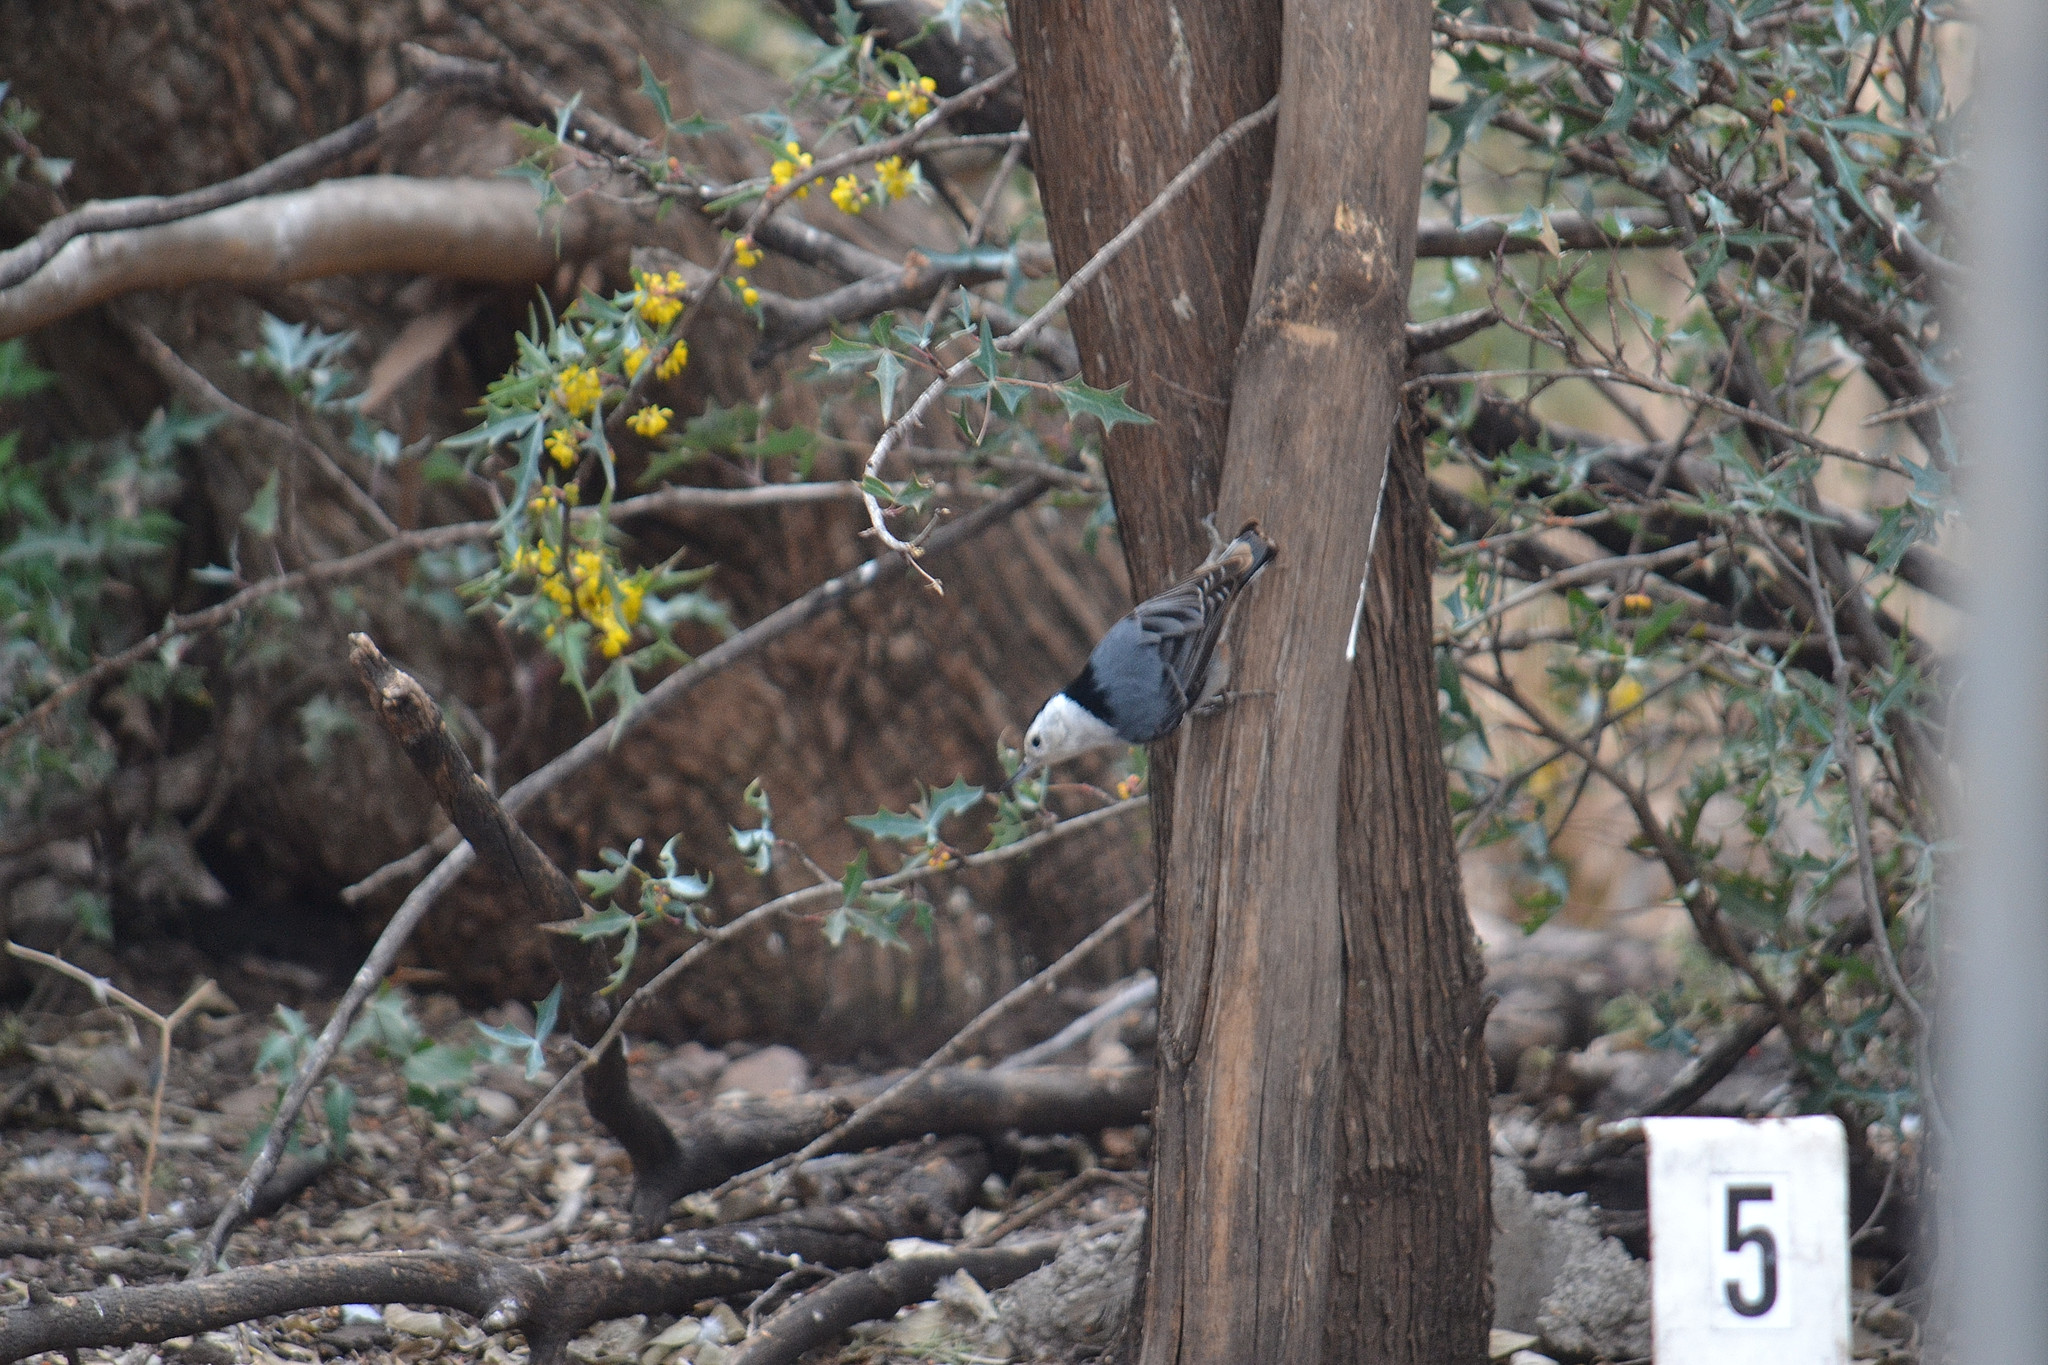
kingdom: Animalia
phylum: Chordata
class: Aves
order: Passeriformes
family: Sittidae
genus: Sitta
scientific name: Sitta carolinensis
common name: White-breasted nuthatch
